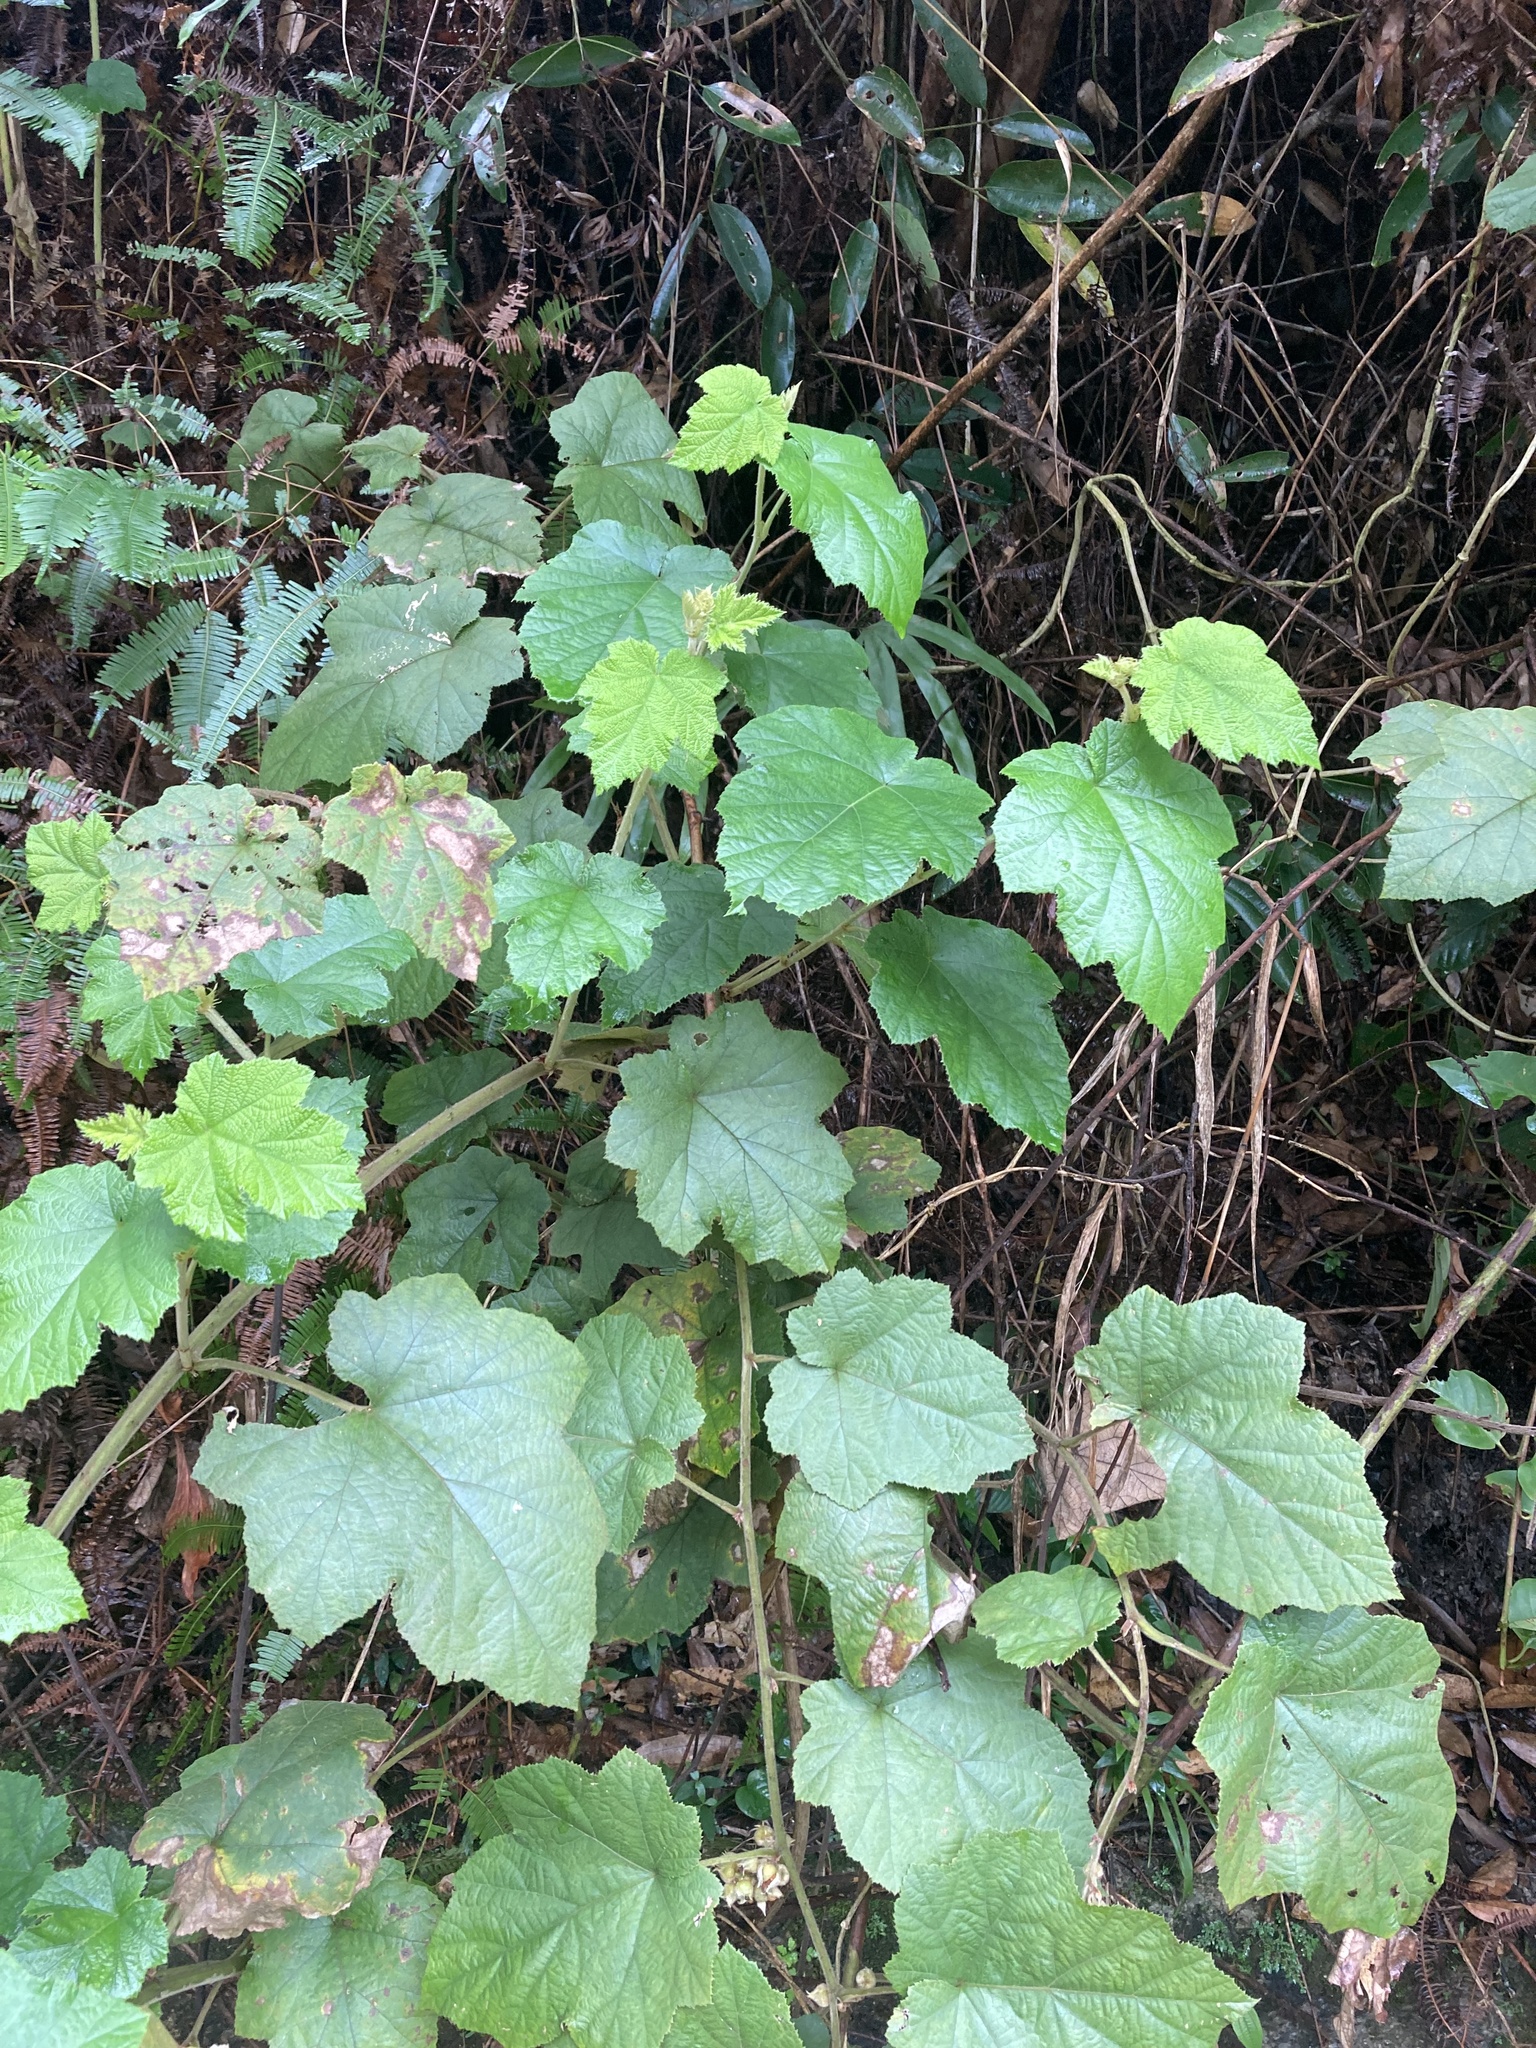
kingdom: Plantae
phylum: Tracheophyta
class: Magnoliopsida
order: Rosales
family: Rosaceae
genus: Rubus
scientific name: Rubus moluccanus
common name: Wild raspberry
